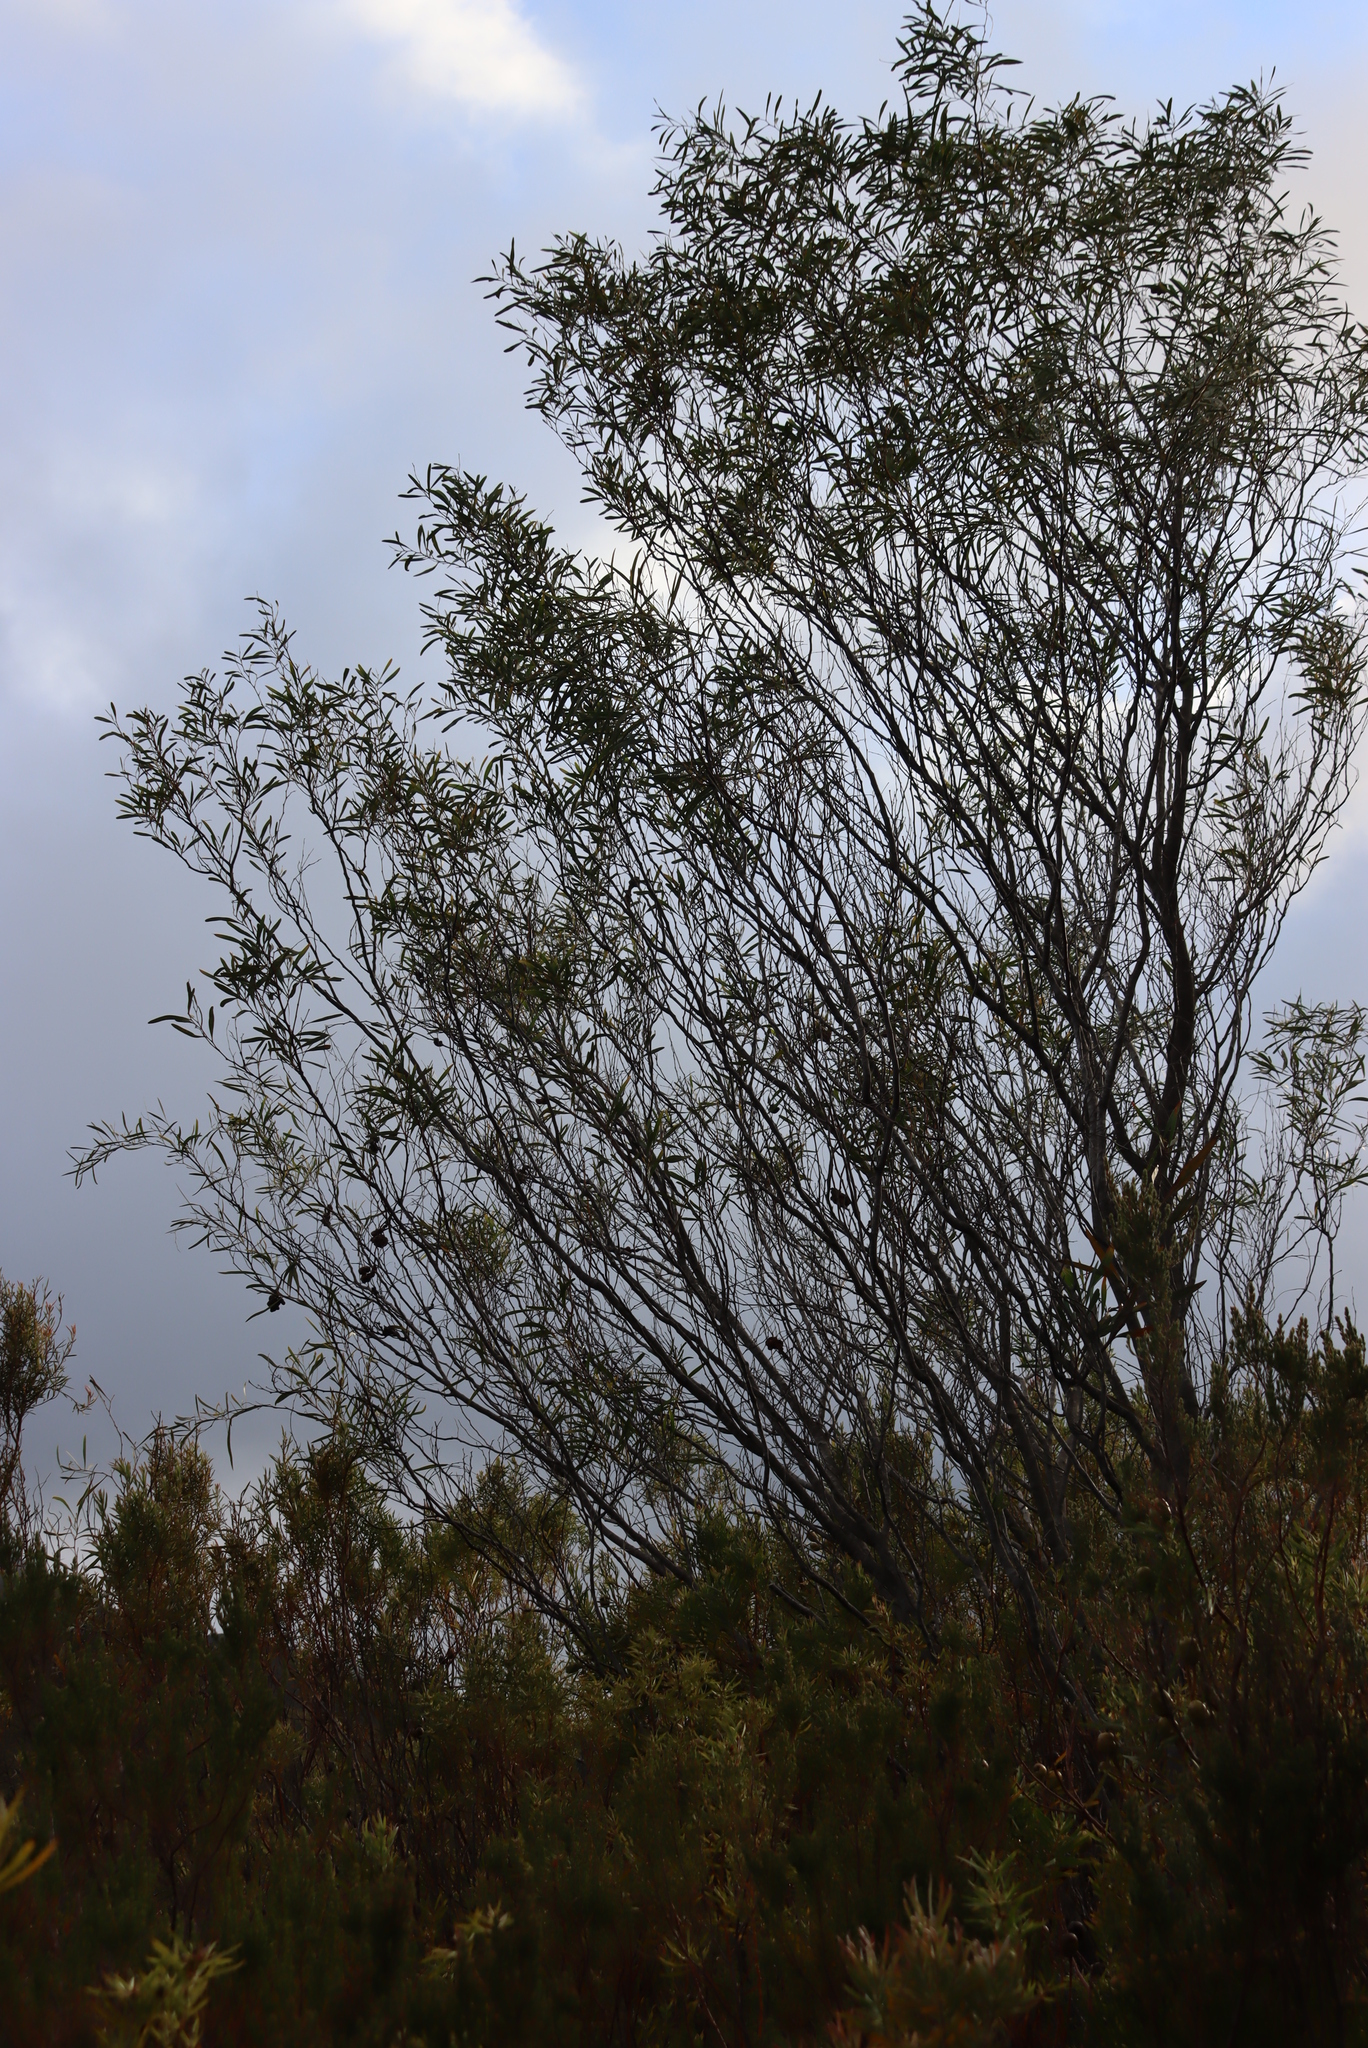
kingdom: Fungi
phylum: Basidiomycota
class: Pucciniomycetes
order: Pucciniales
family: Uromycladiaceae
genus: Uromycladium
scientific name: Uromycladium morrisii
